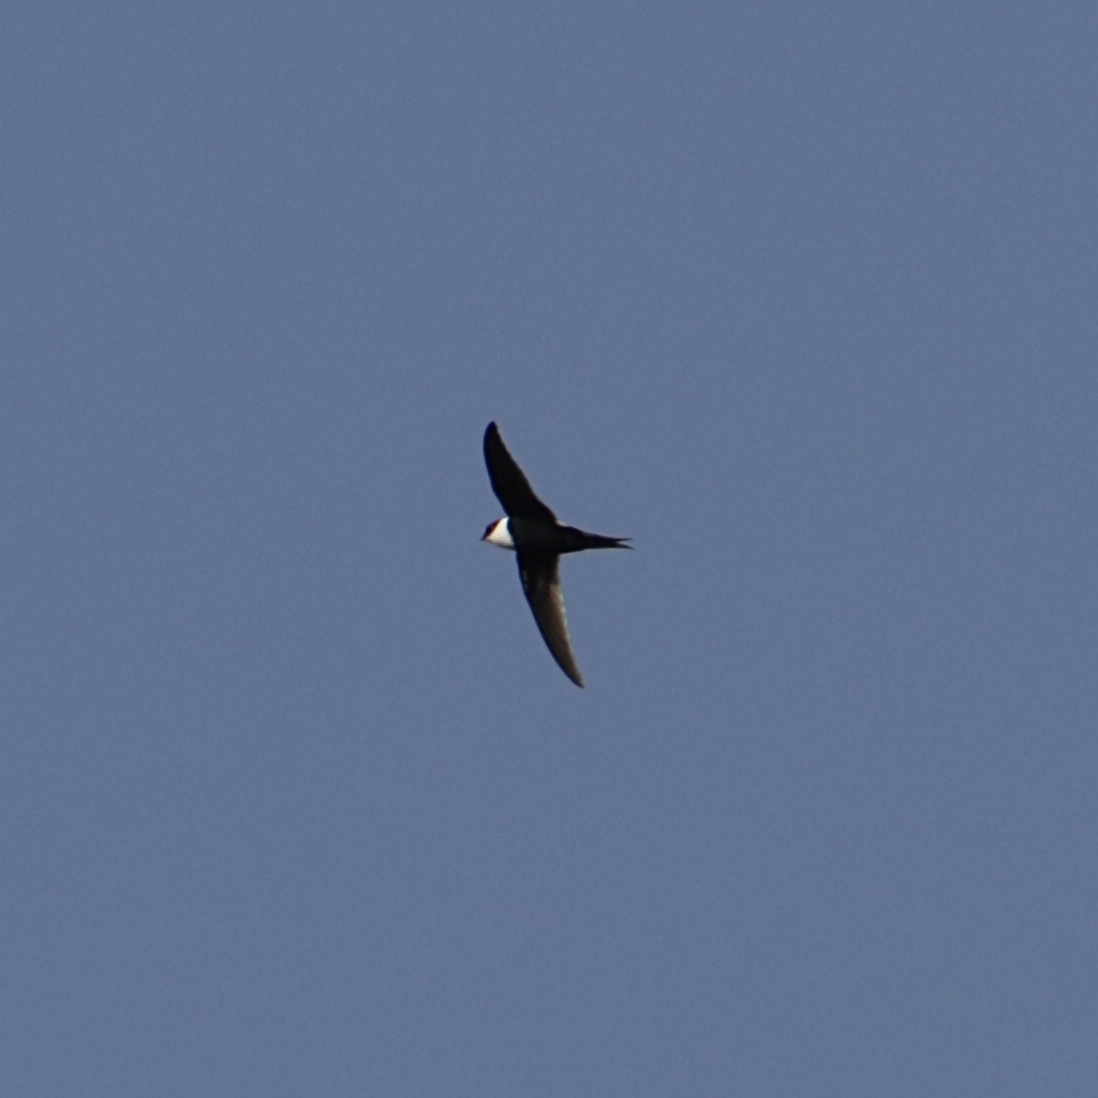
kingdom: Animalia
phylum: Chordata
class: Aves
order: Apodiformes
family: Apodidae
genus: Panyptila
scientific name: Panyptila cayennensis
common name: Lesser swallow-tailed swift
